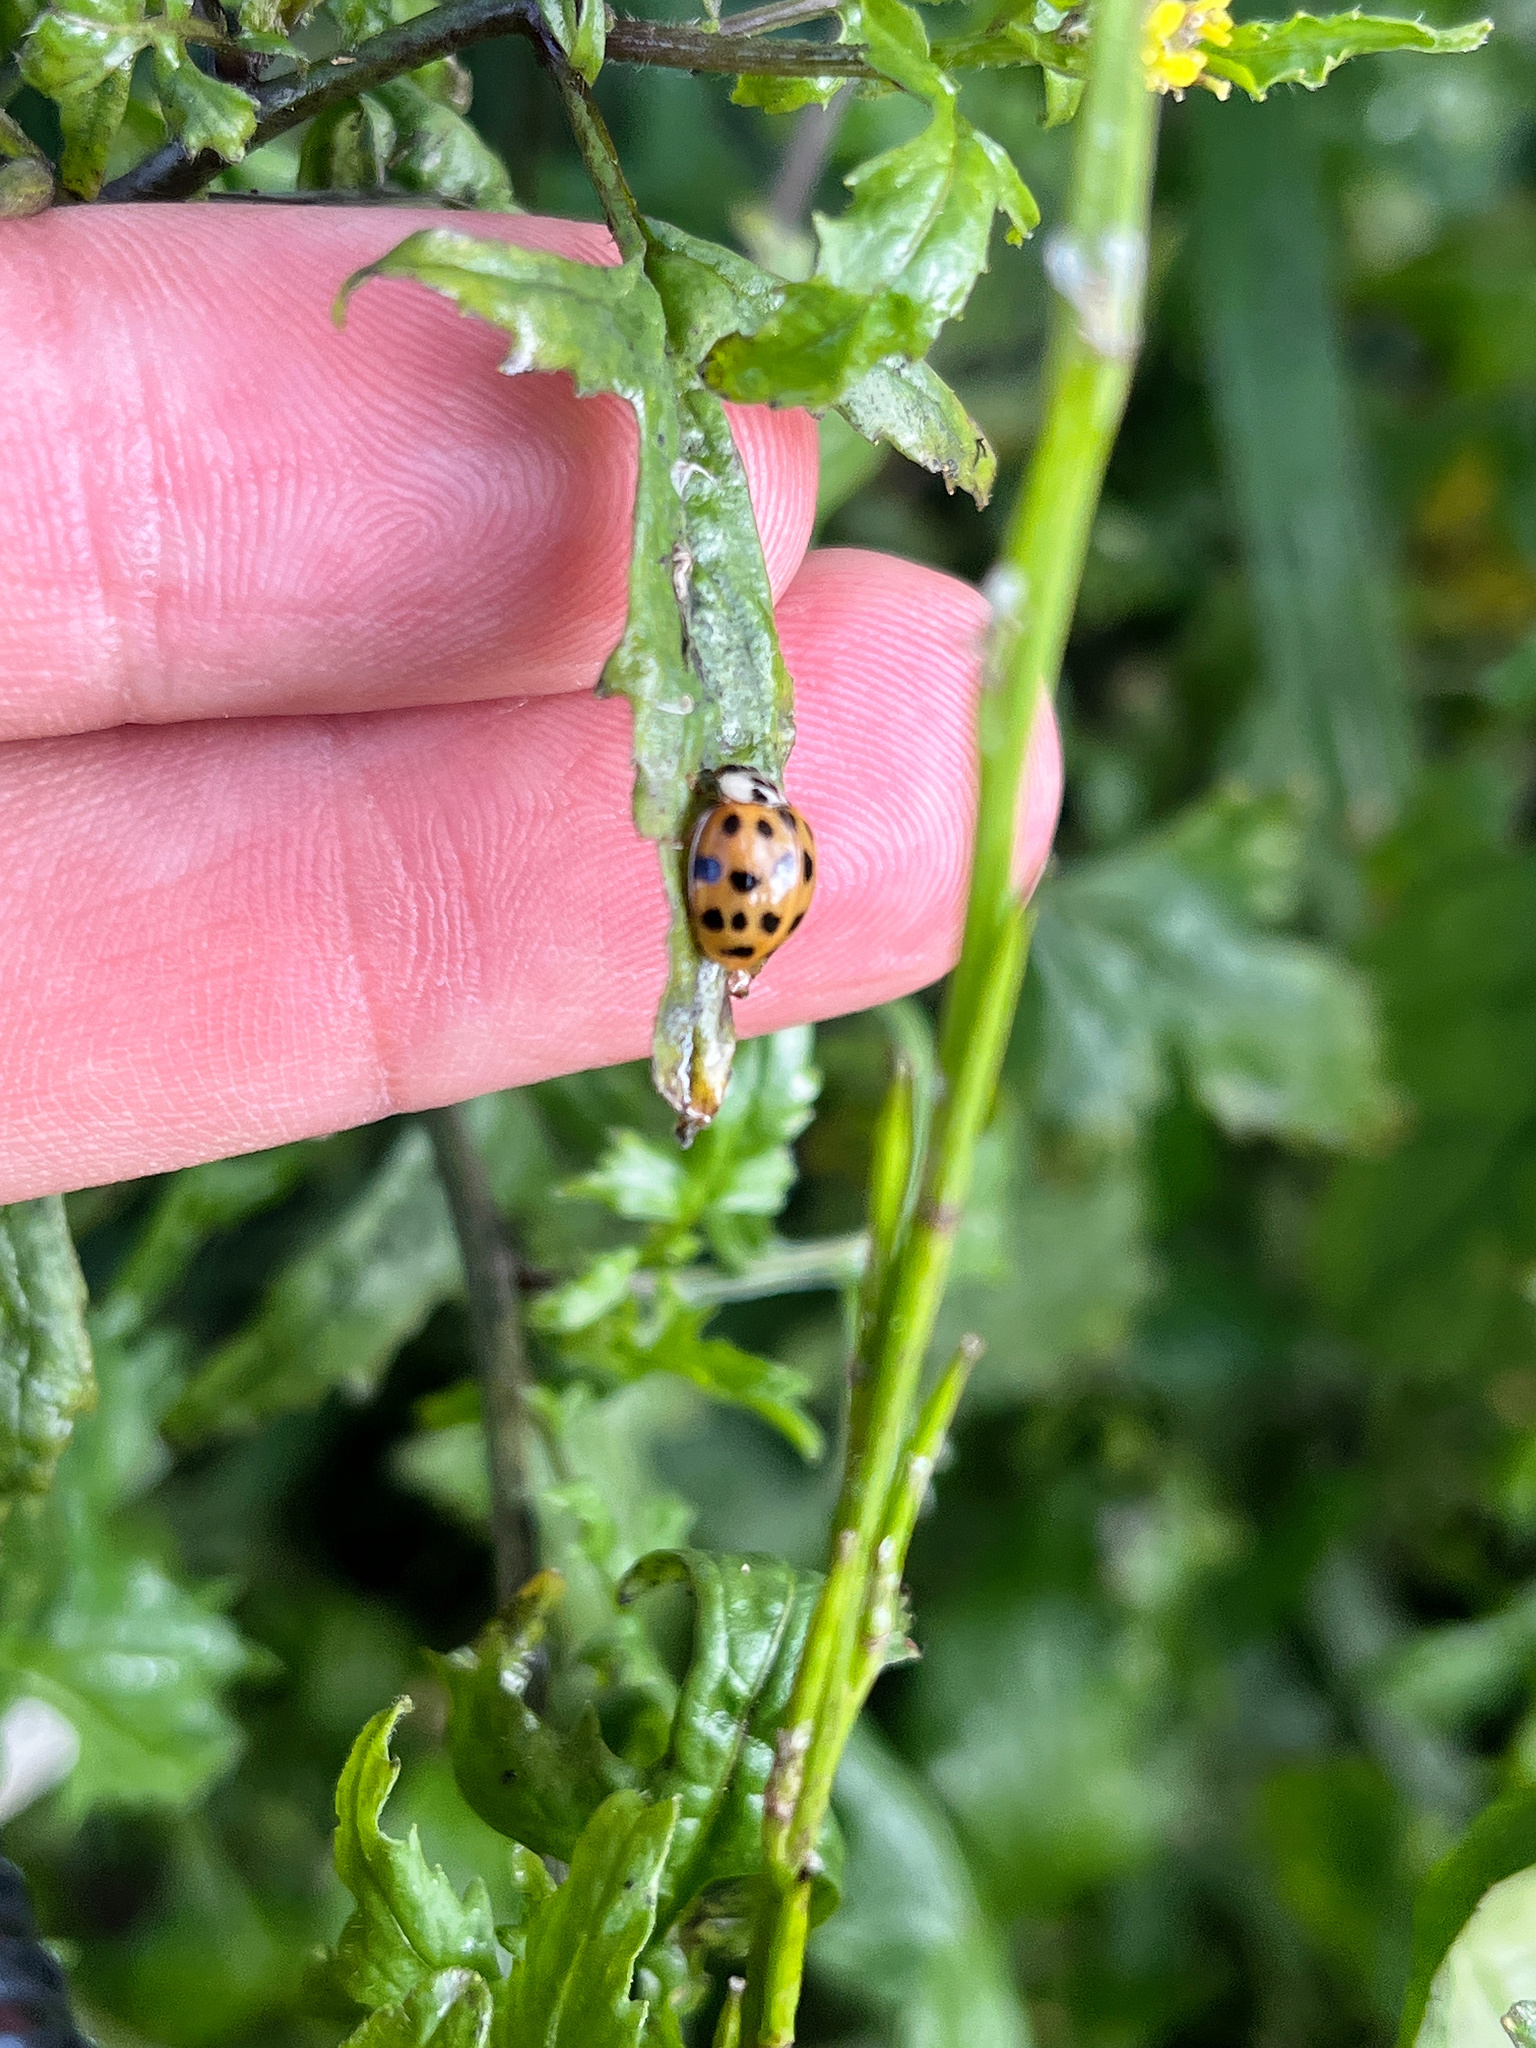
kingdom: Animalia
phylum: Arthropoda
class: Insecta
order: Coleoptera
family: Coccinellidae
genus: Harmonia
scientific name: Harmonia axyridis
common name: Harlequin ladybird
